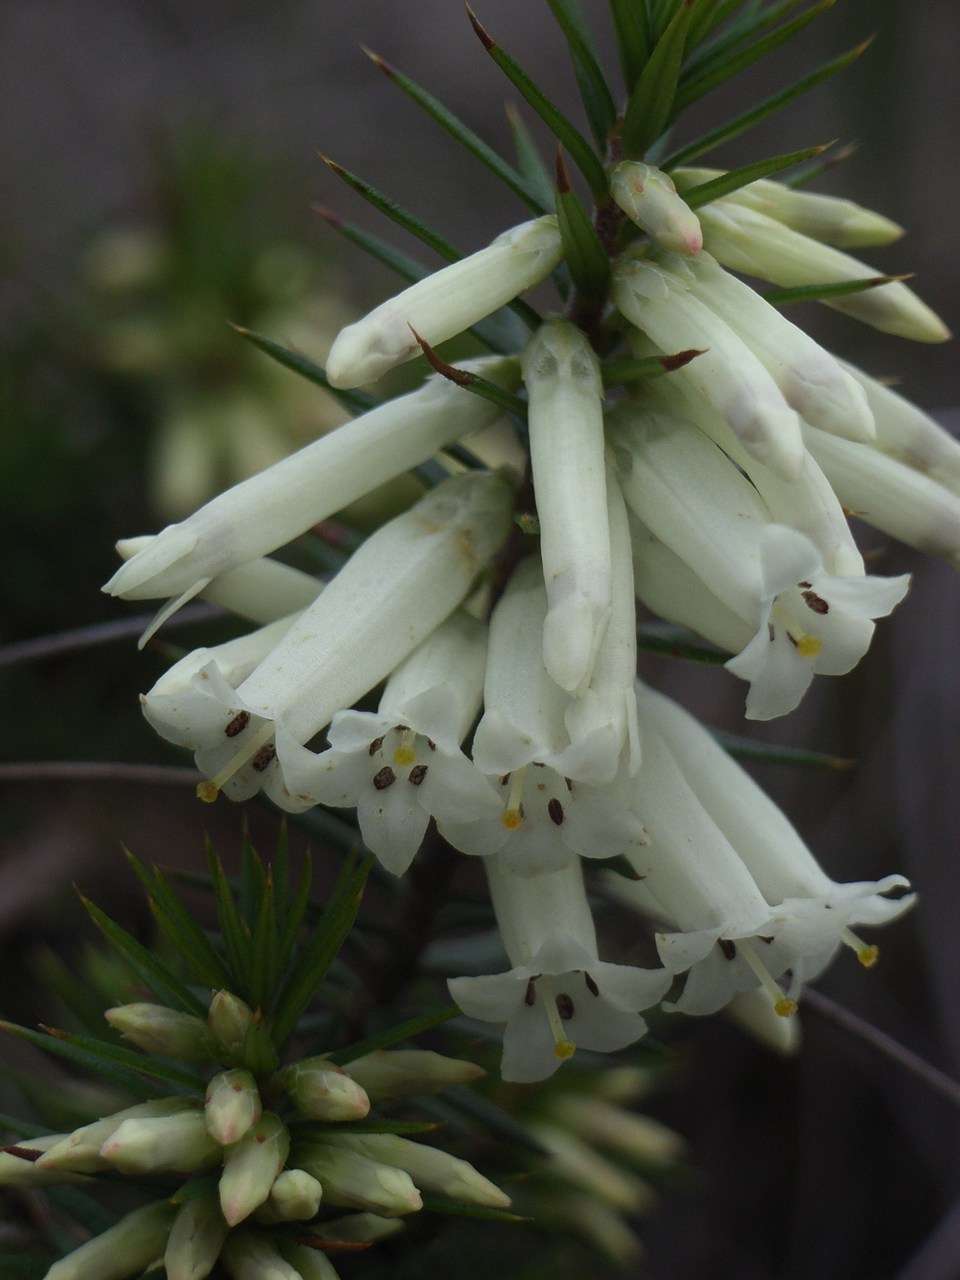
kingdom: Plantae
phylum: Tracheophyta
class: Magnoliopsida
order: Ericales
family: Ericaceae
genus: Epacris
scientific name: Epacris impressa
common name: Common-heath
